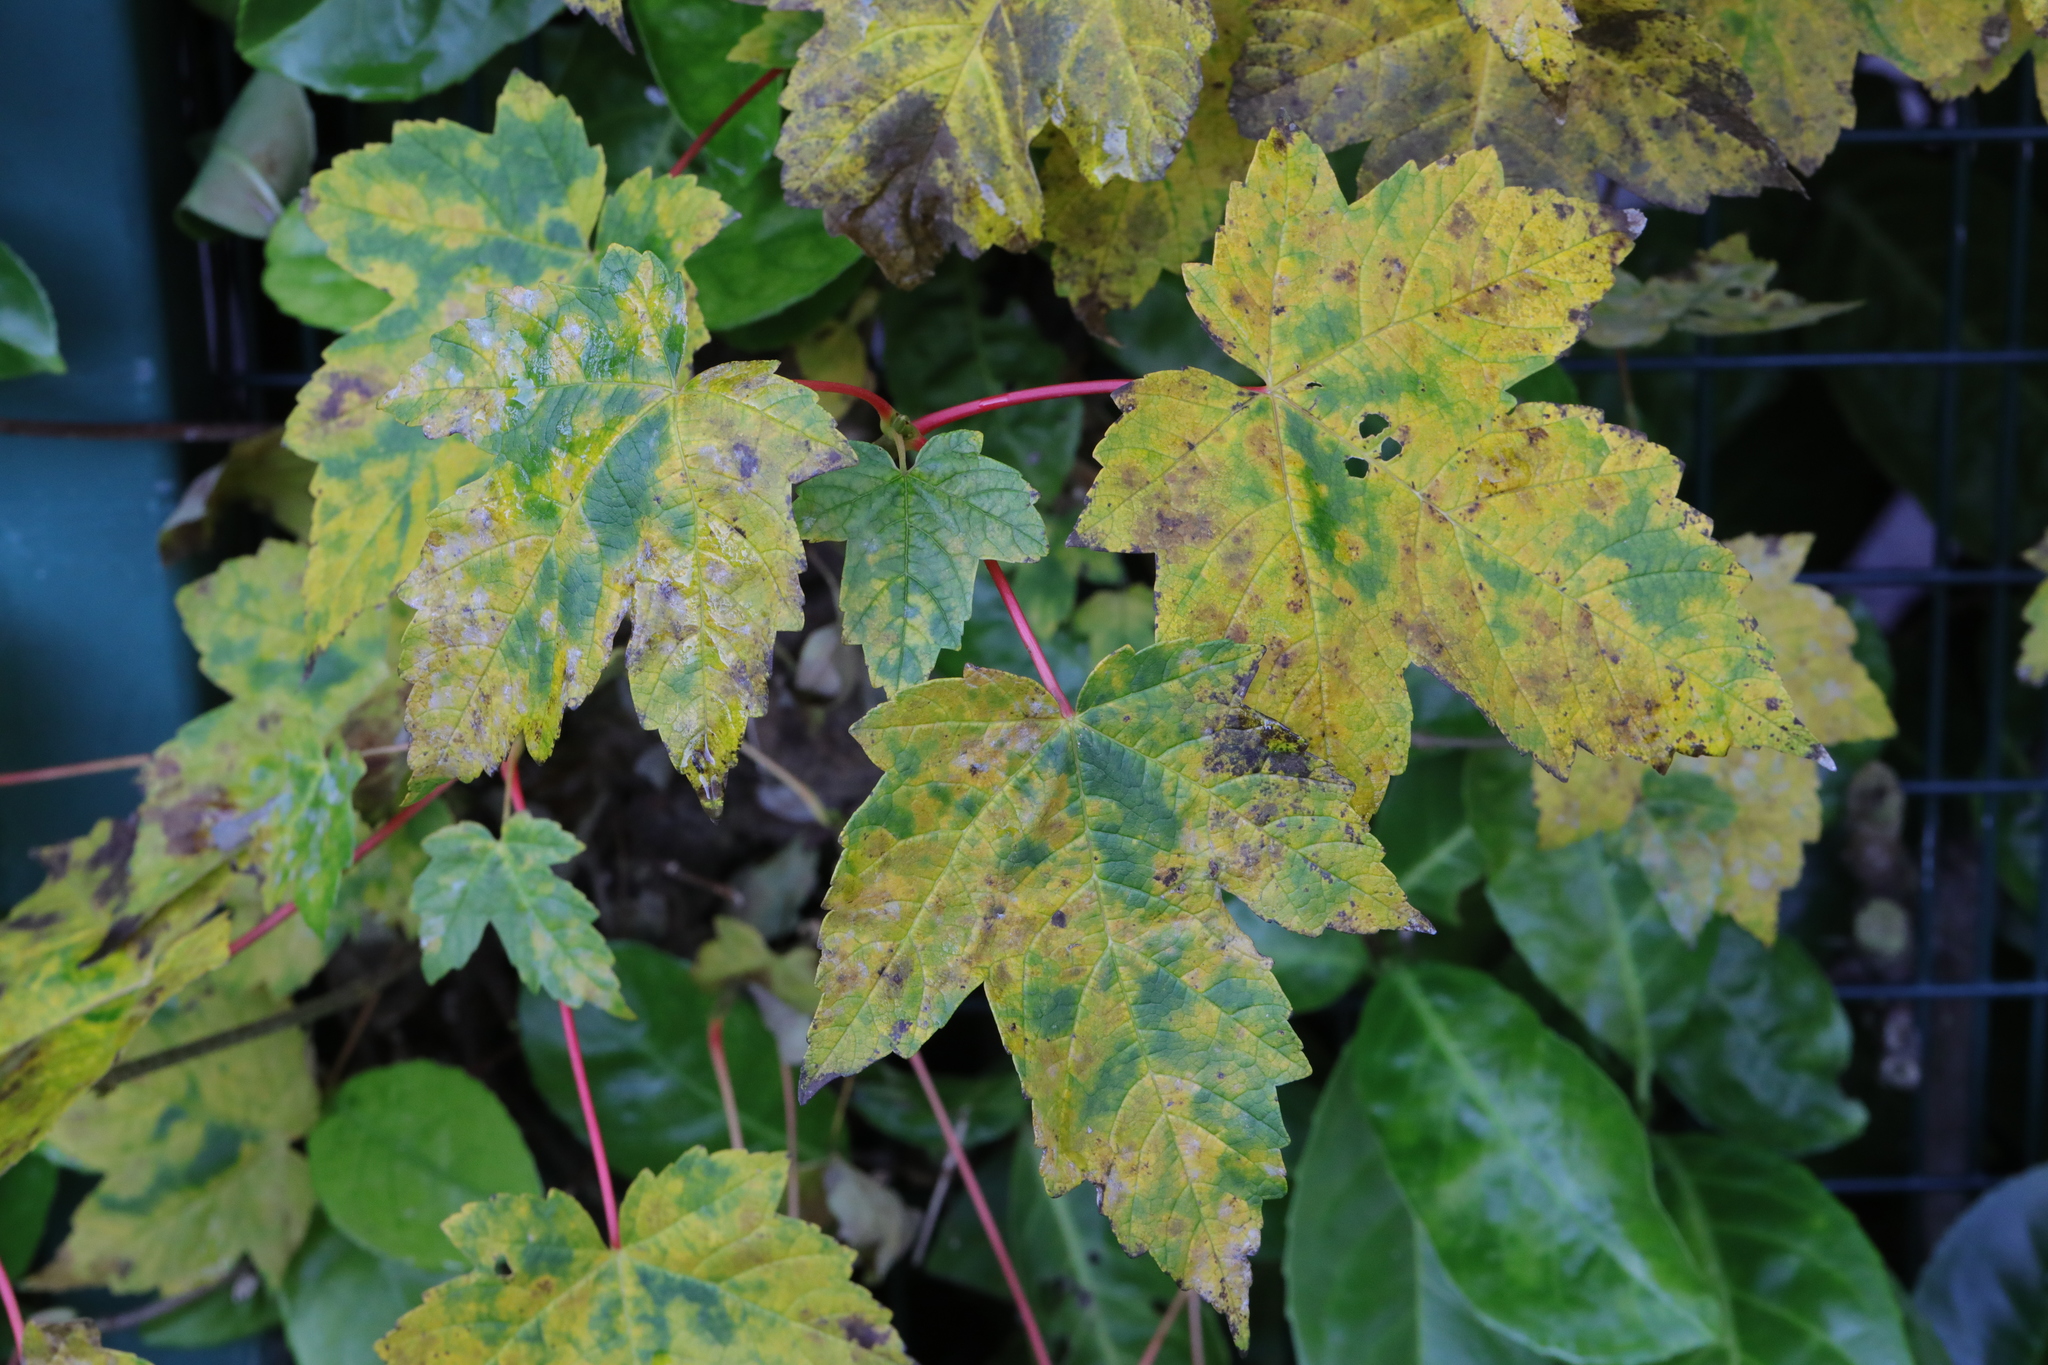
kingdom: Plantae
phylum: Tracheophyta
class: Magnoliopsida
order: Sapindales
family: Sapindaceae
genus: Acer
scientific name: Acer pseudoplatanus
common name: Sycamore
